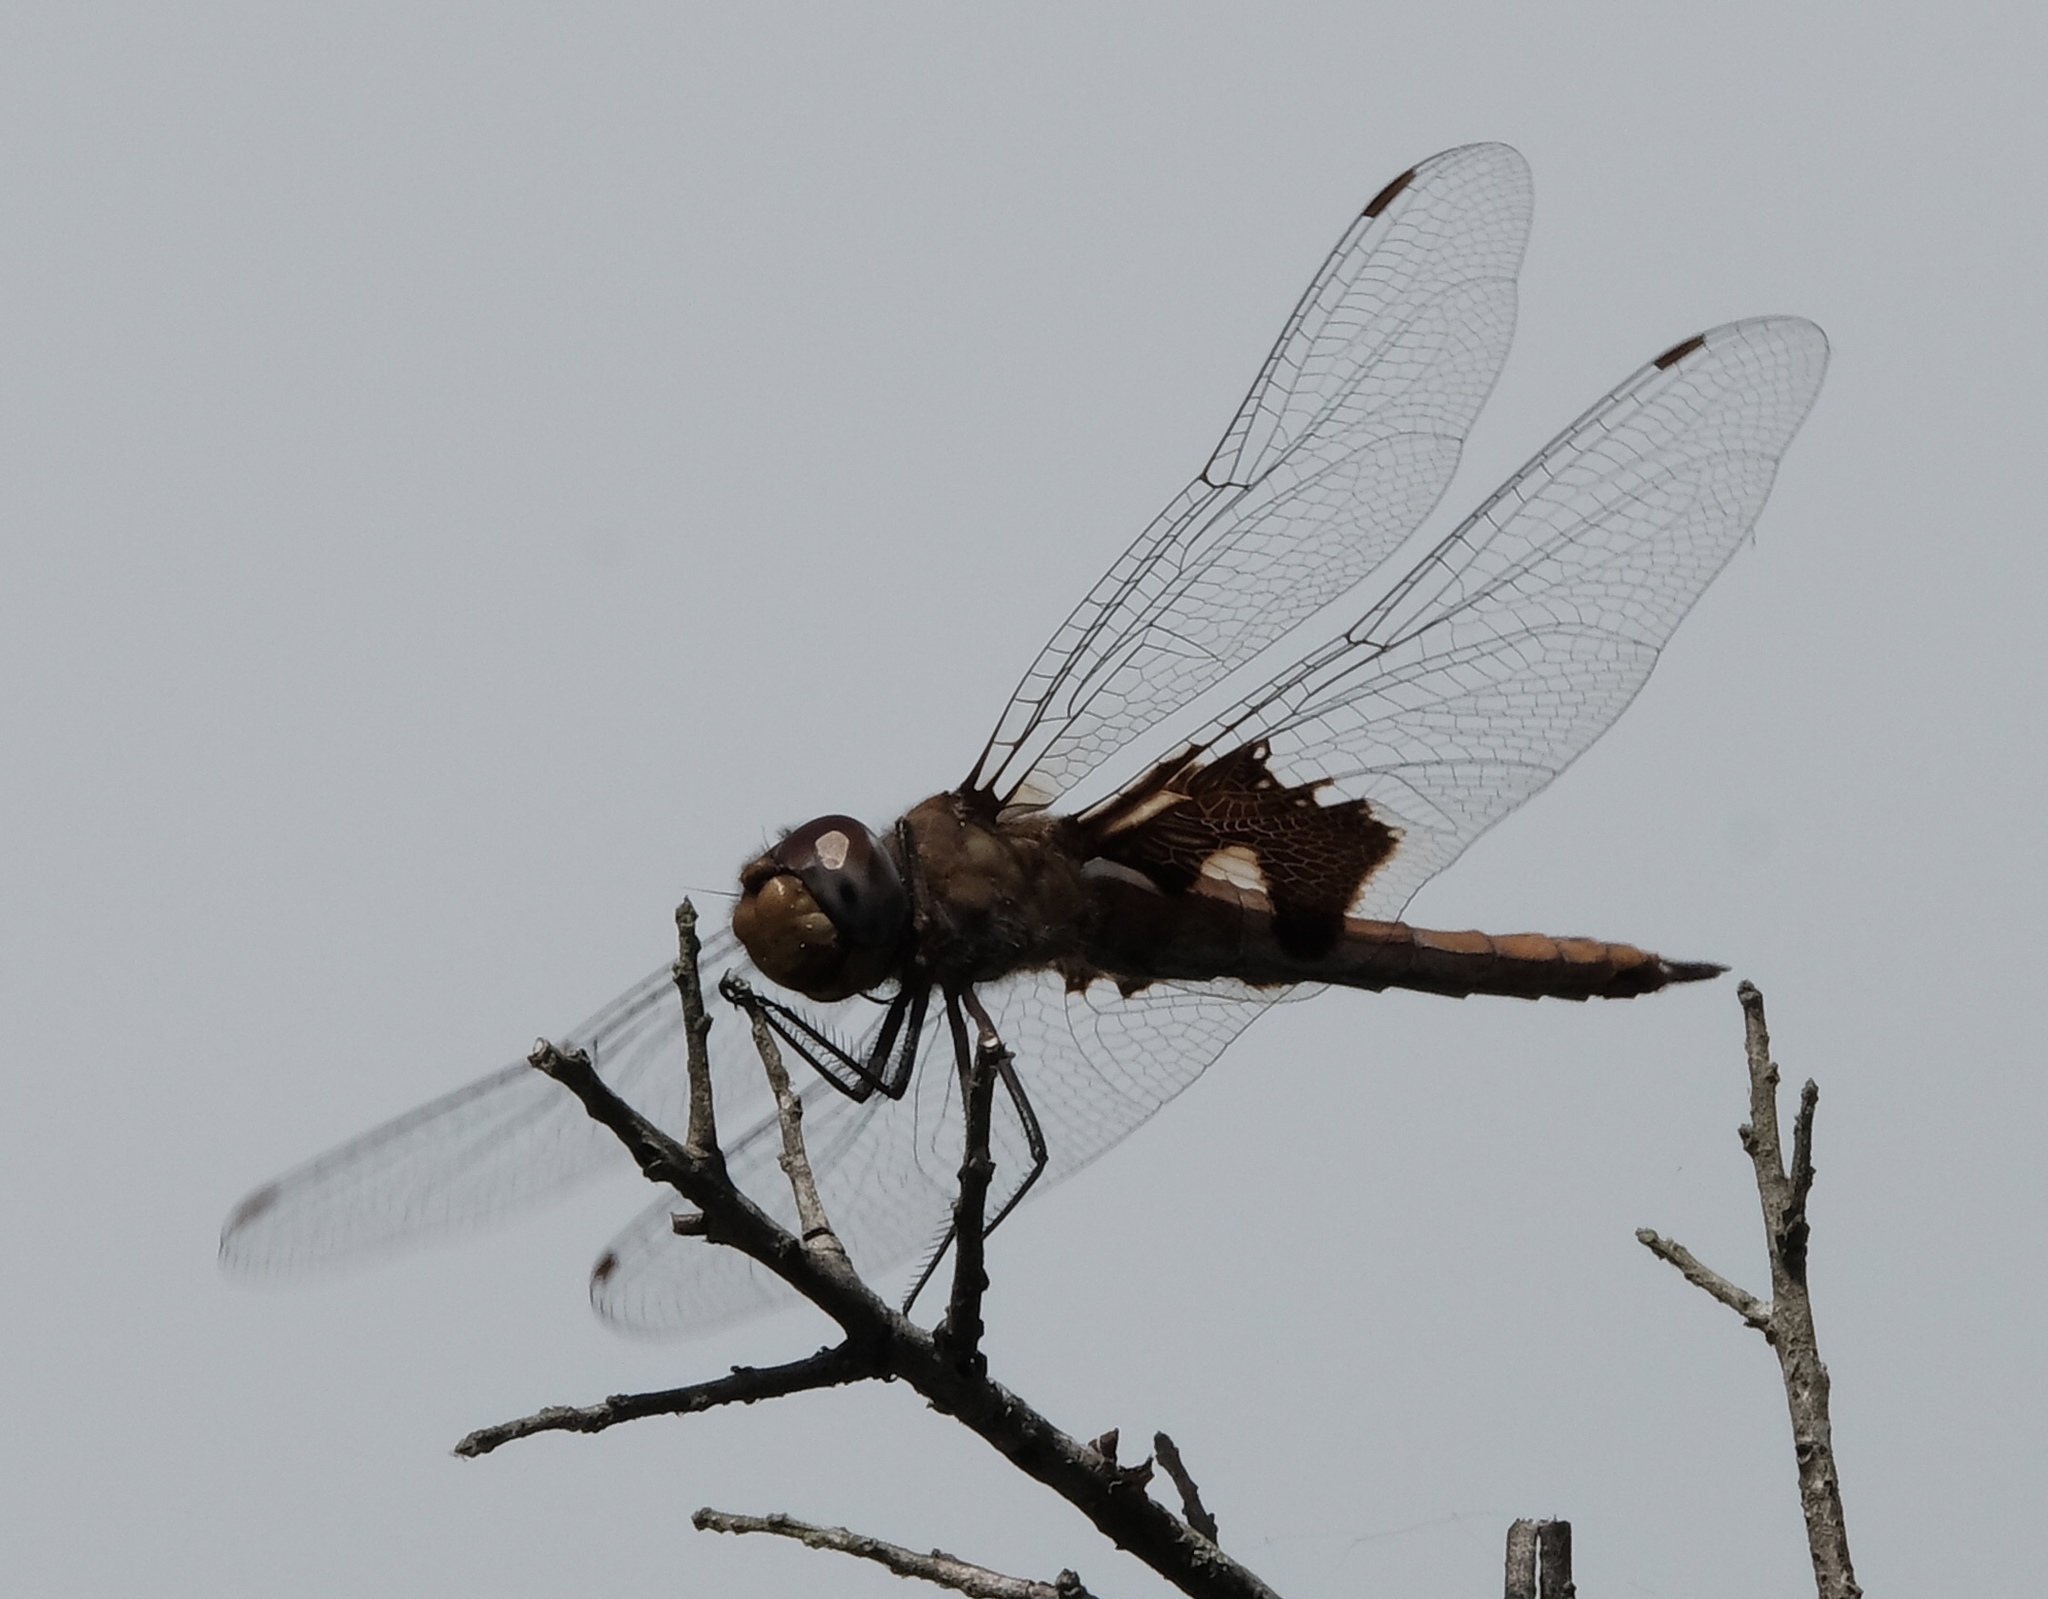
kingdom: Animalia
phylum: Arthropoda
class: Insecta
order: Odonata
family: Libellulidae
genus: Tramea
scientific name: Tramea onusta
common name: Red saddlebags
